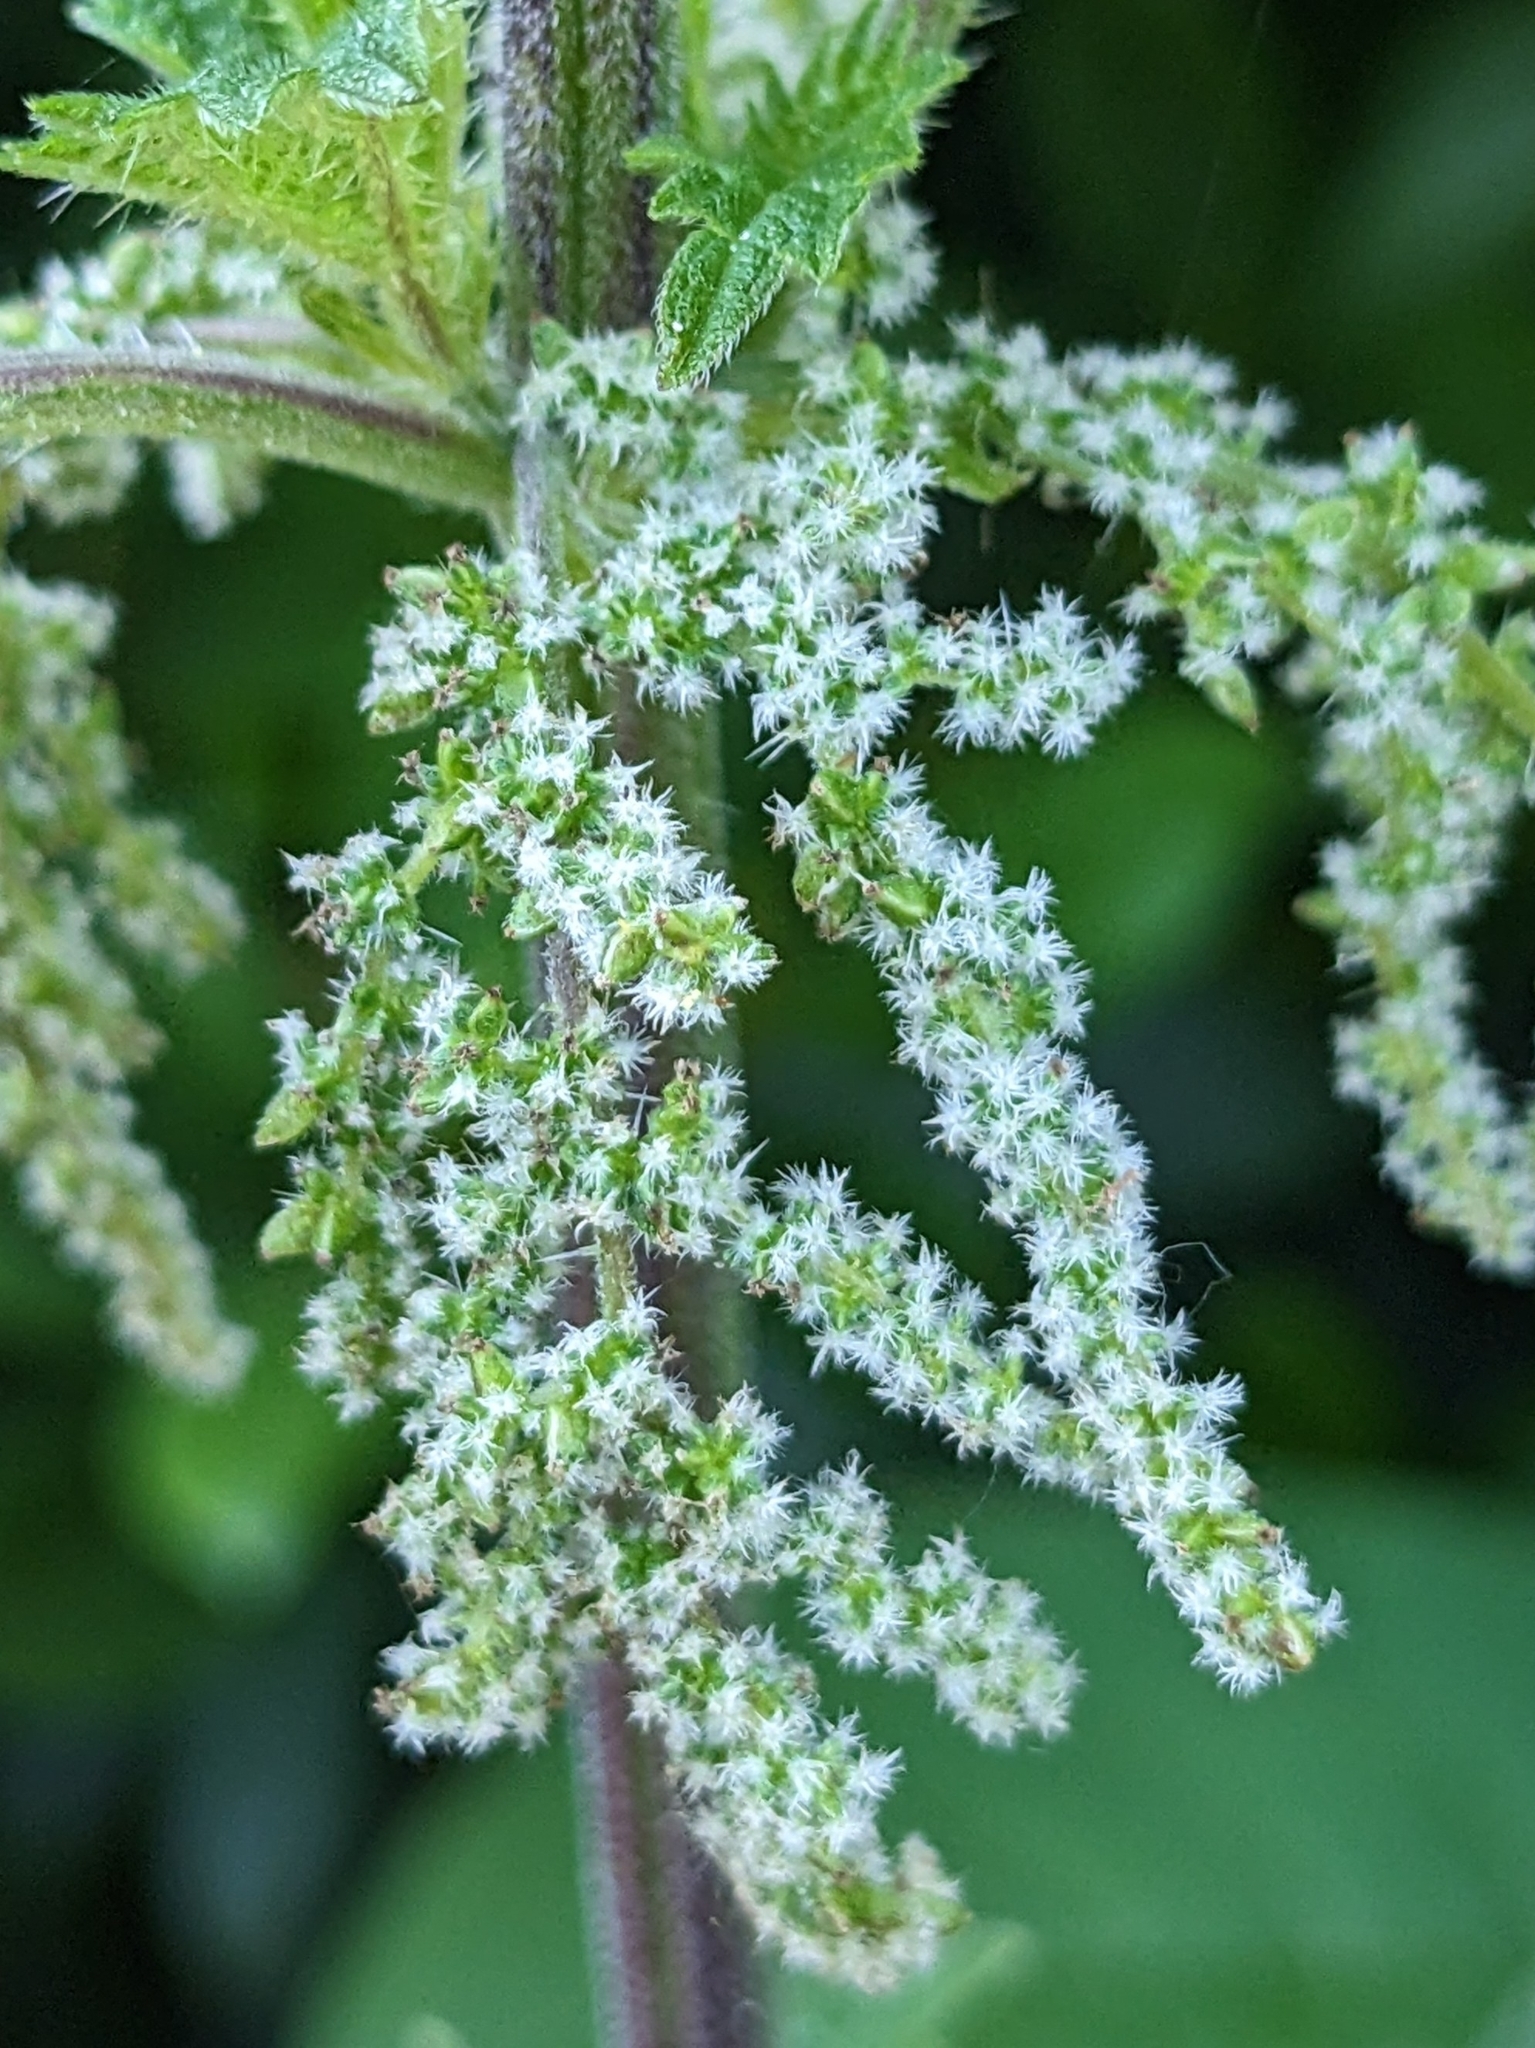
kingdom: Plantae
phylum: Tracheophyta
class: Magnoliopsida
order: Rosales
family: Urticaceae
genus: Urtica
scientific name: Urtica dioica
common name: Common nettle
